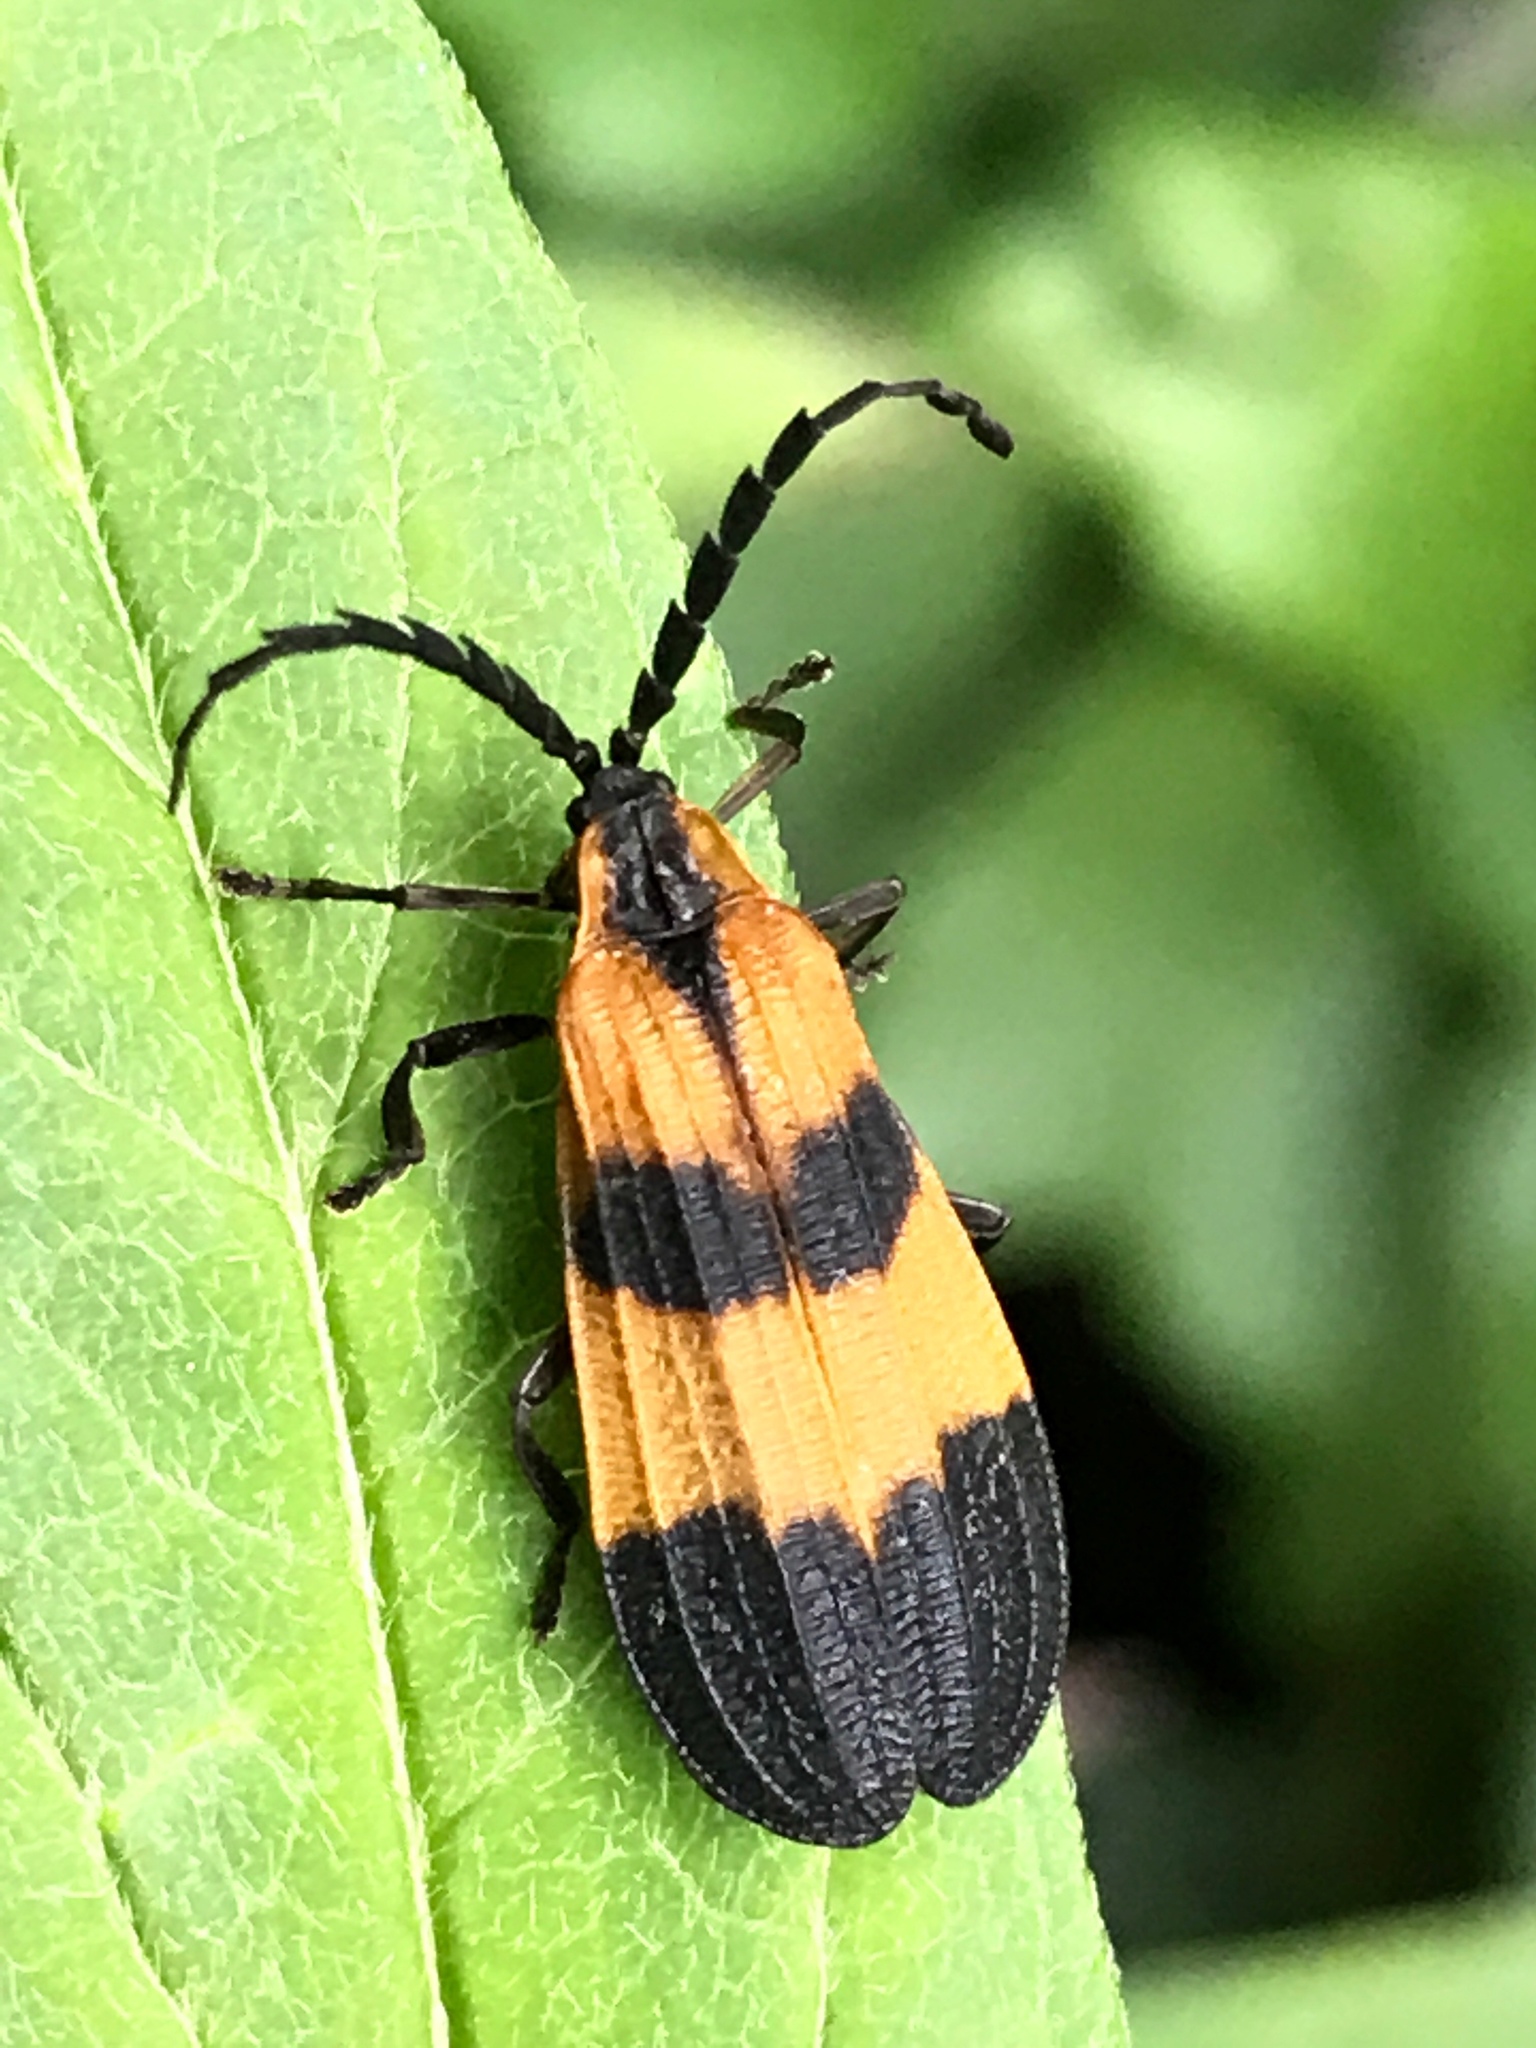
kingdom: Animalia
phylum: Arthropoda
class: Insecta
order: Coleoptera
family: Lycidae
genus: Calopteron
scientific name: Calopteron discrepans
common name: Banded net-winged beetle
